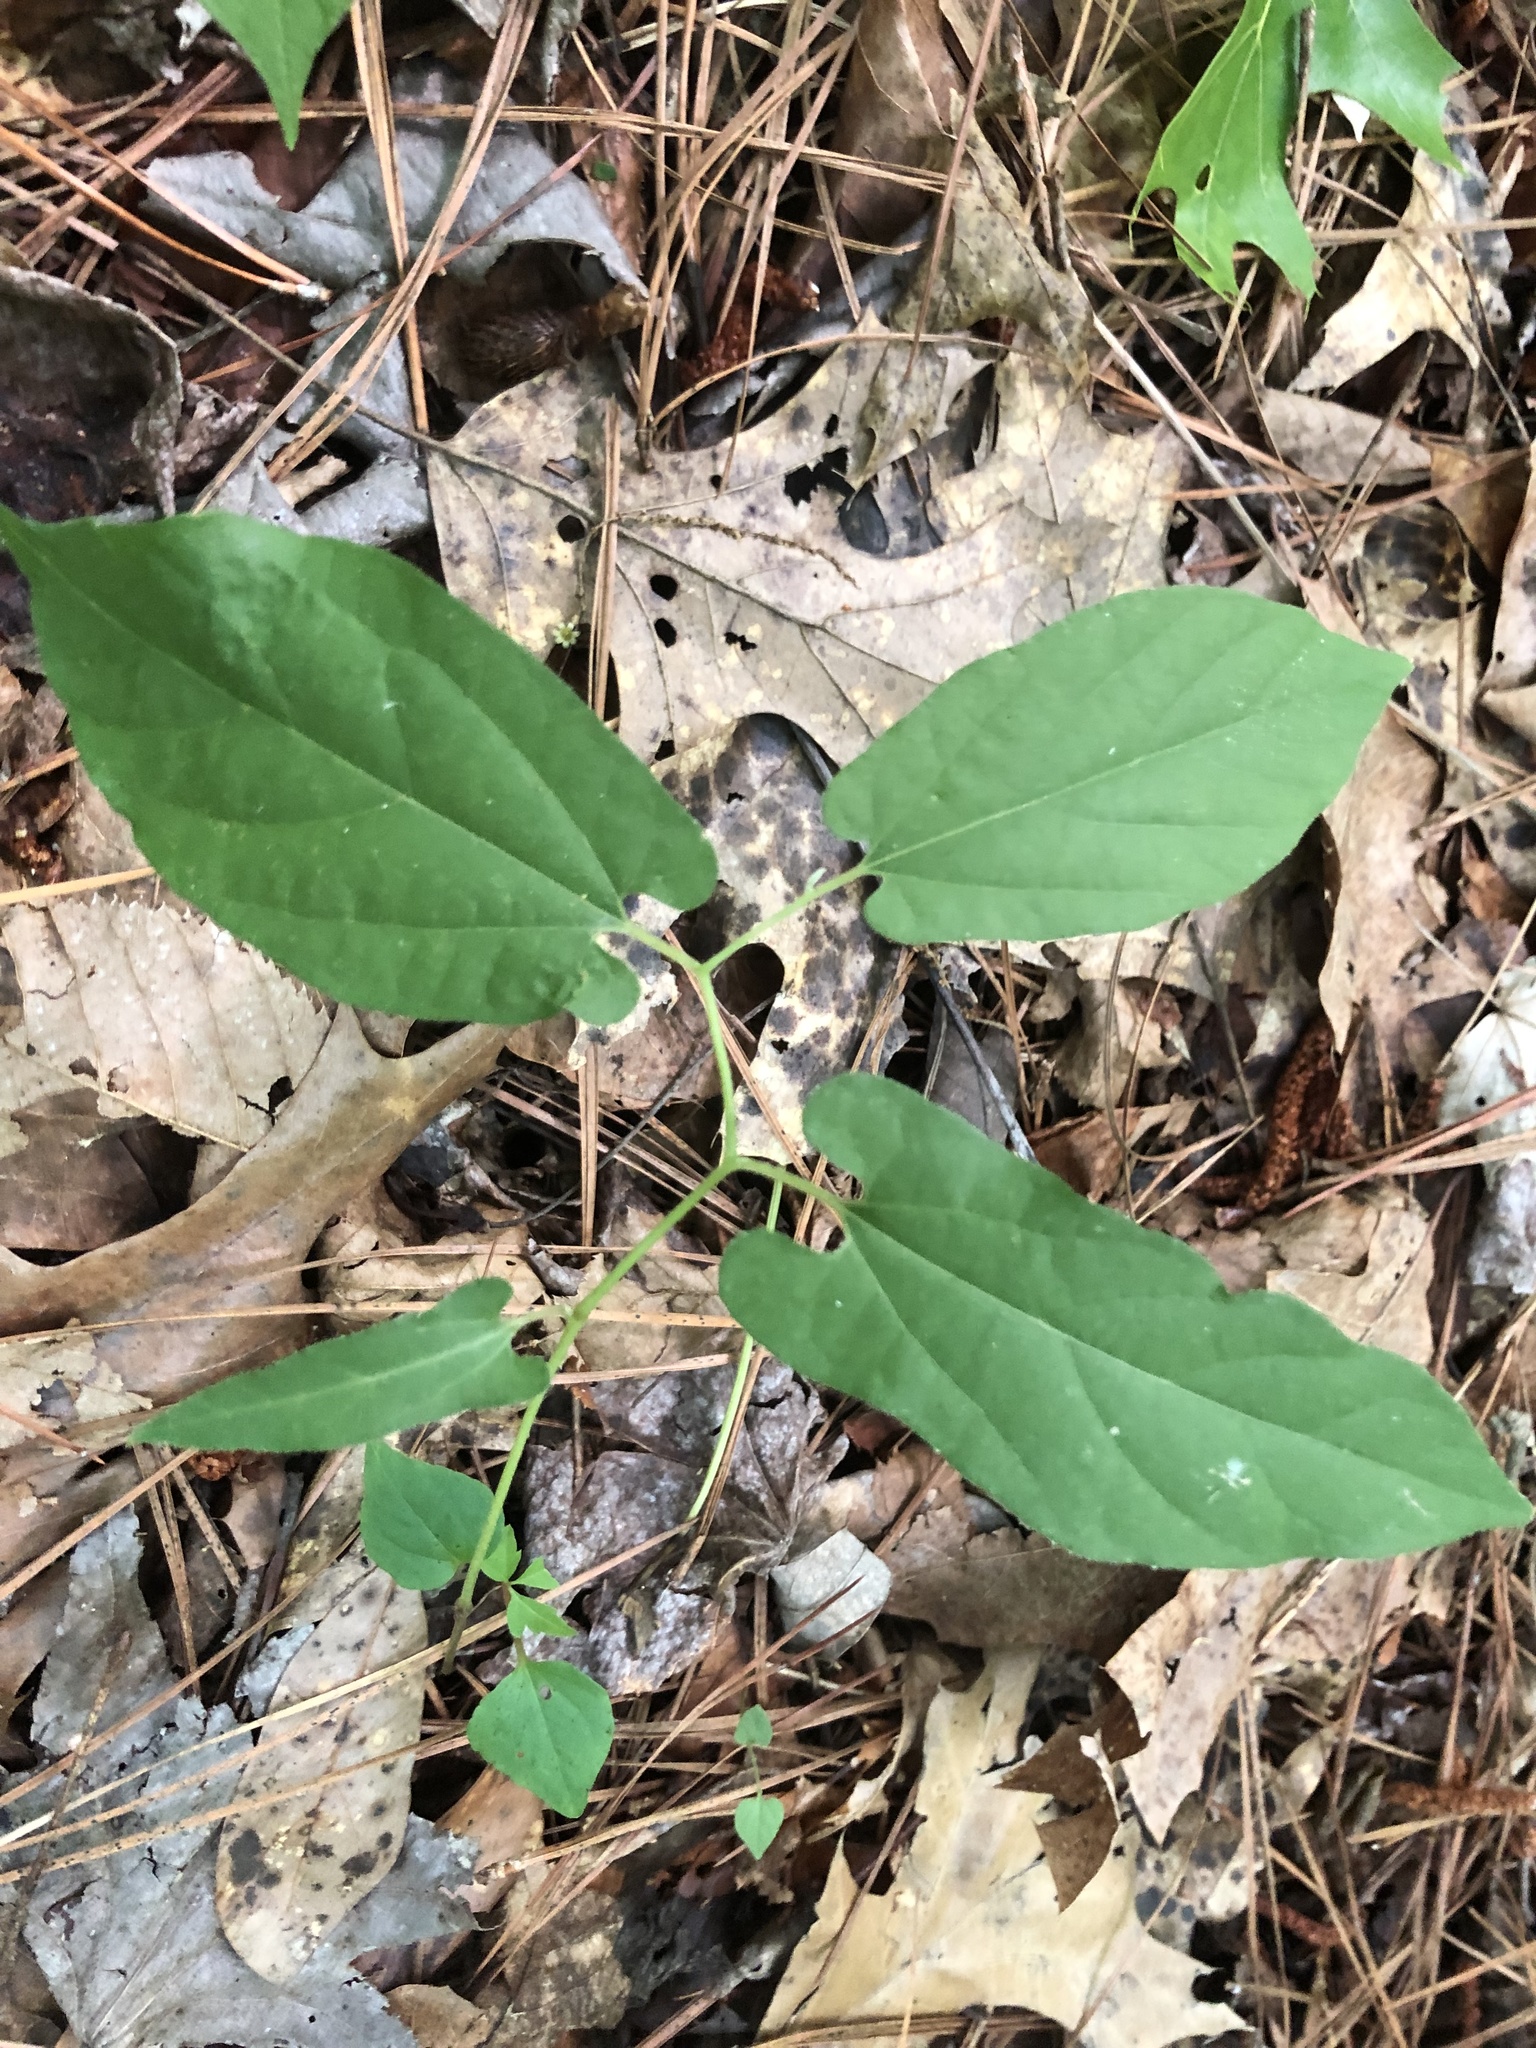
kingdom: Plantae
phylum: Tracheophyta
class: Magnoliopsida
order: Piperales
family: Aristolochiaceae
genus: Endodeca
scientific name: Endodeca serpentaria
